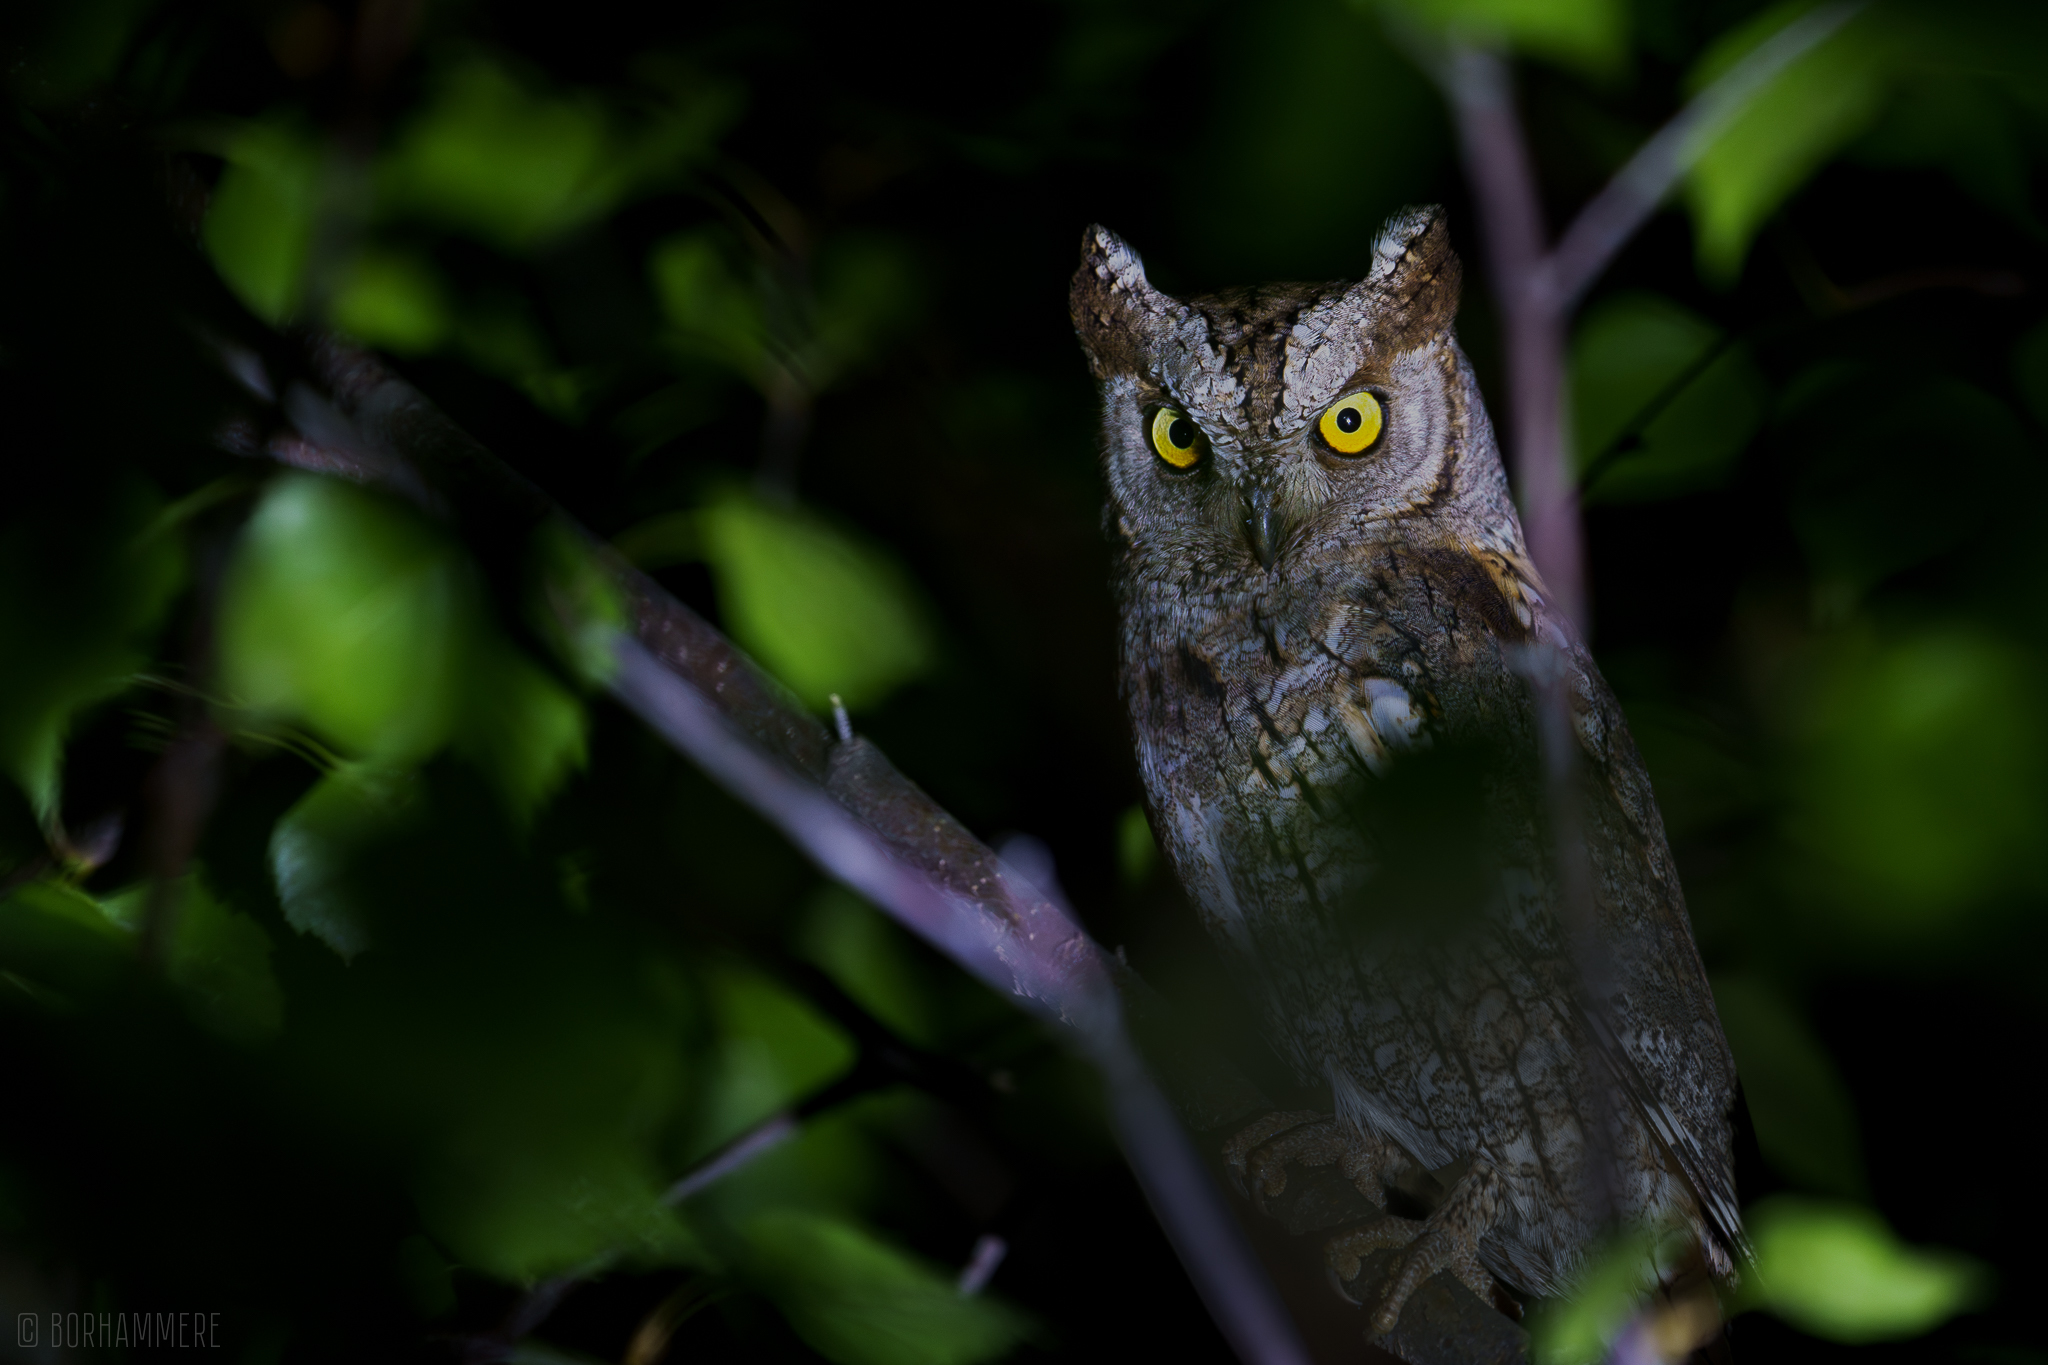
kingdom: Animalia
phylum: Chordata
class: Aves
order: Strigiformes
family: Strigidae
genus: Otus
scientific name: Otus scops
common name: Eurasian scops owl
